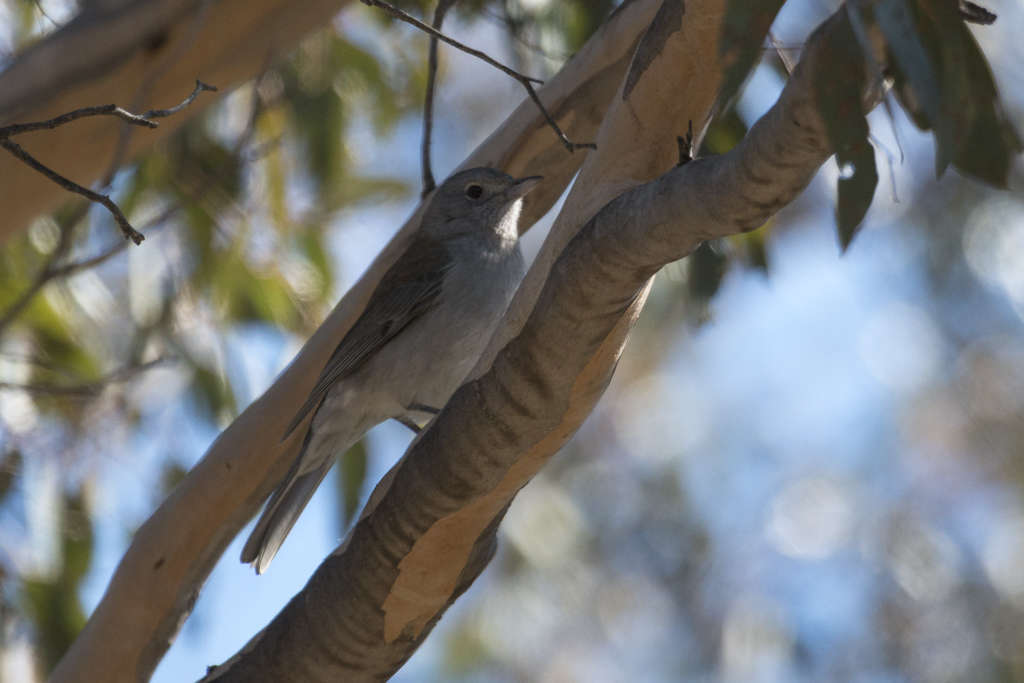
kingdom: Animalia
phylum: Chordata
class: Aves
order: Passeriformes
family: Pachycephalidae
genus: Colluricincla
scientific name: Colluricincla harmonica
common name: Grey shrikethrush
